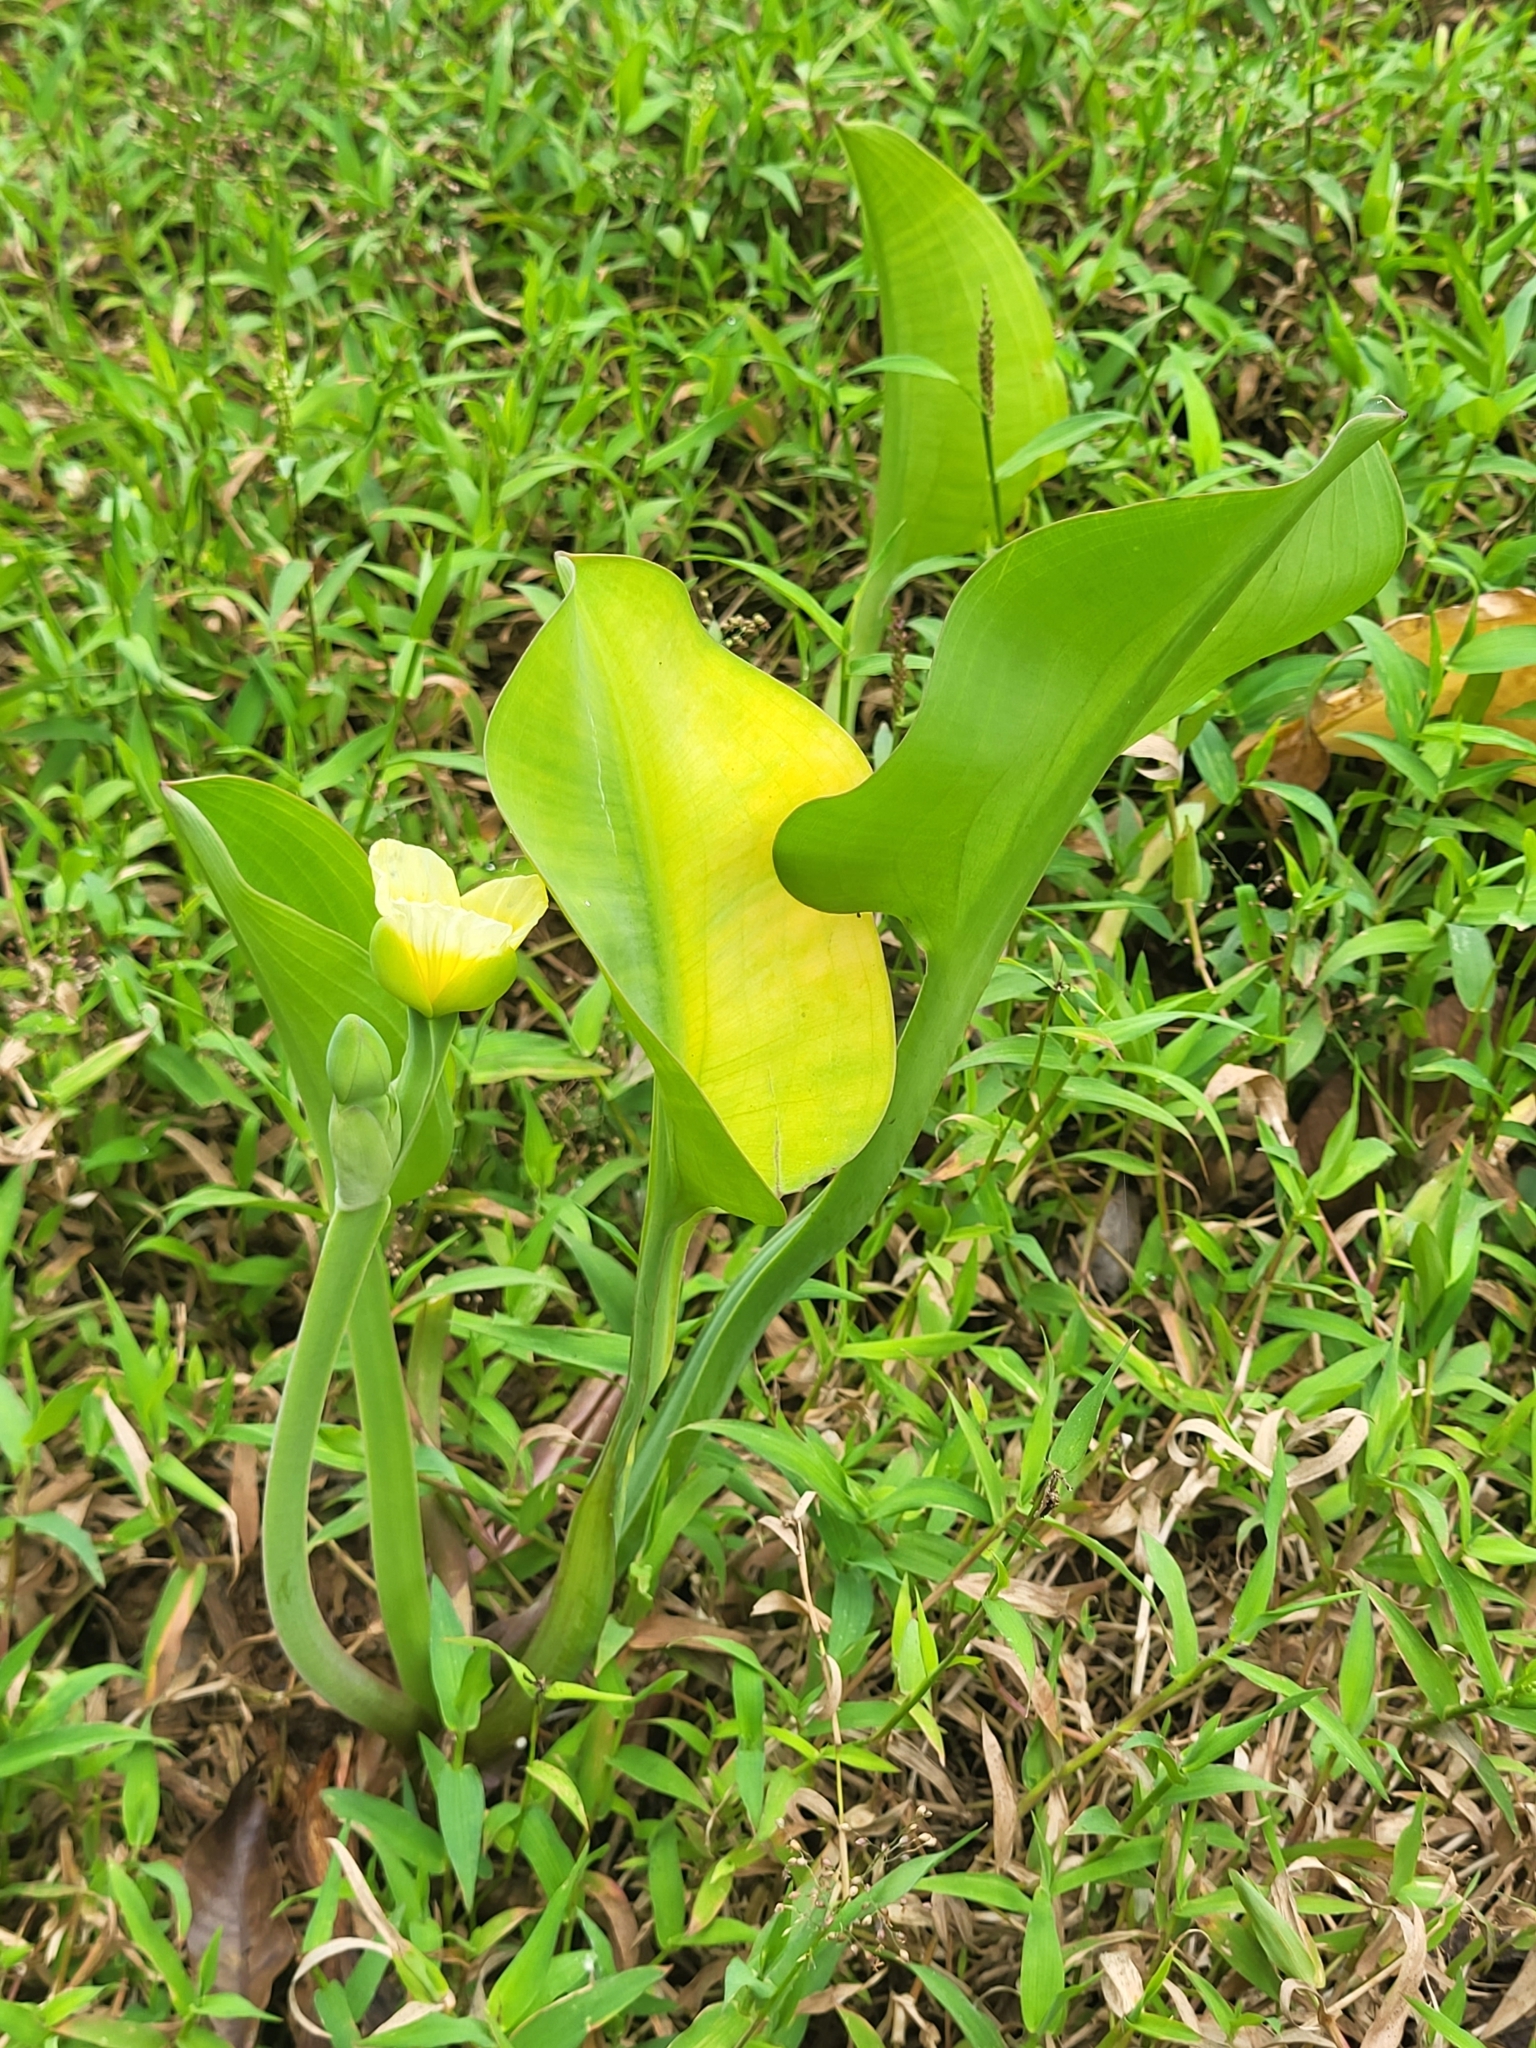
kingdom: Plantae
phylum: Tracheophyta
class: Liliopsida
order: Alismatales
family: Alismataceae
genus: Limnocharis
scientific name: Limnocharis flava
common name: Sawah-flower-rush
